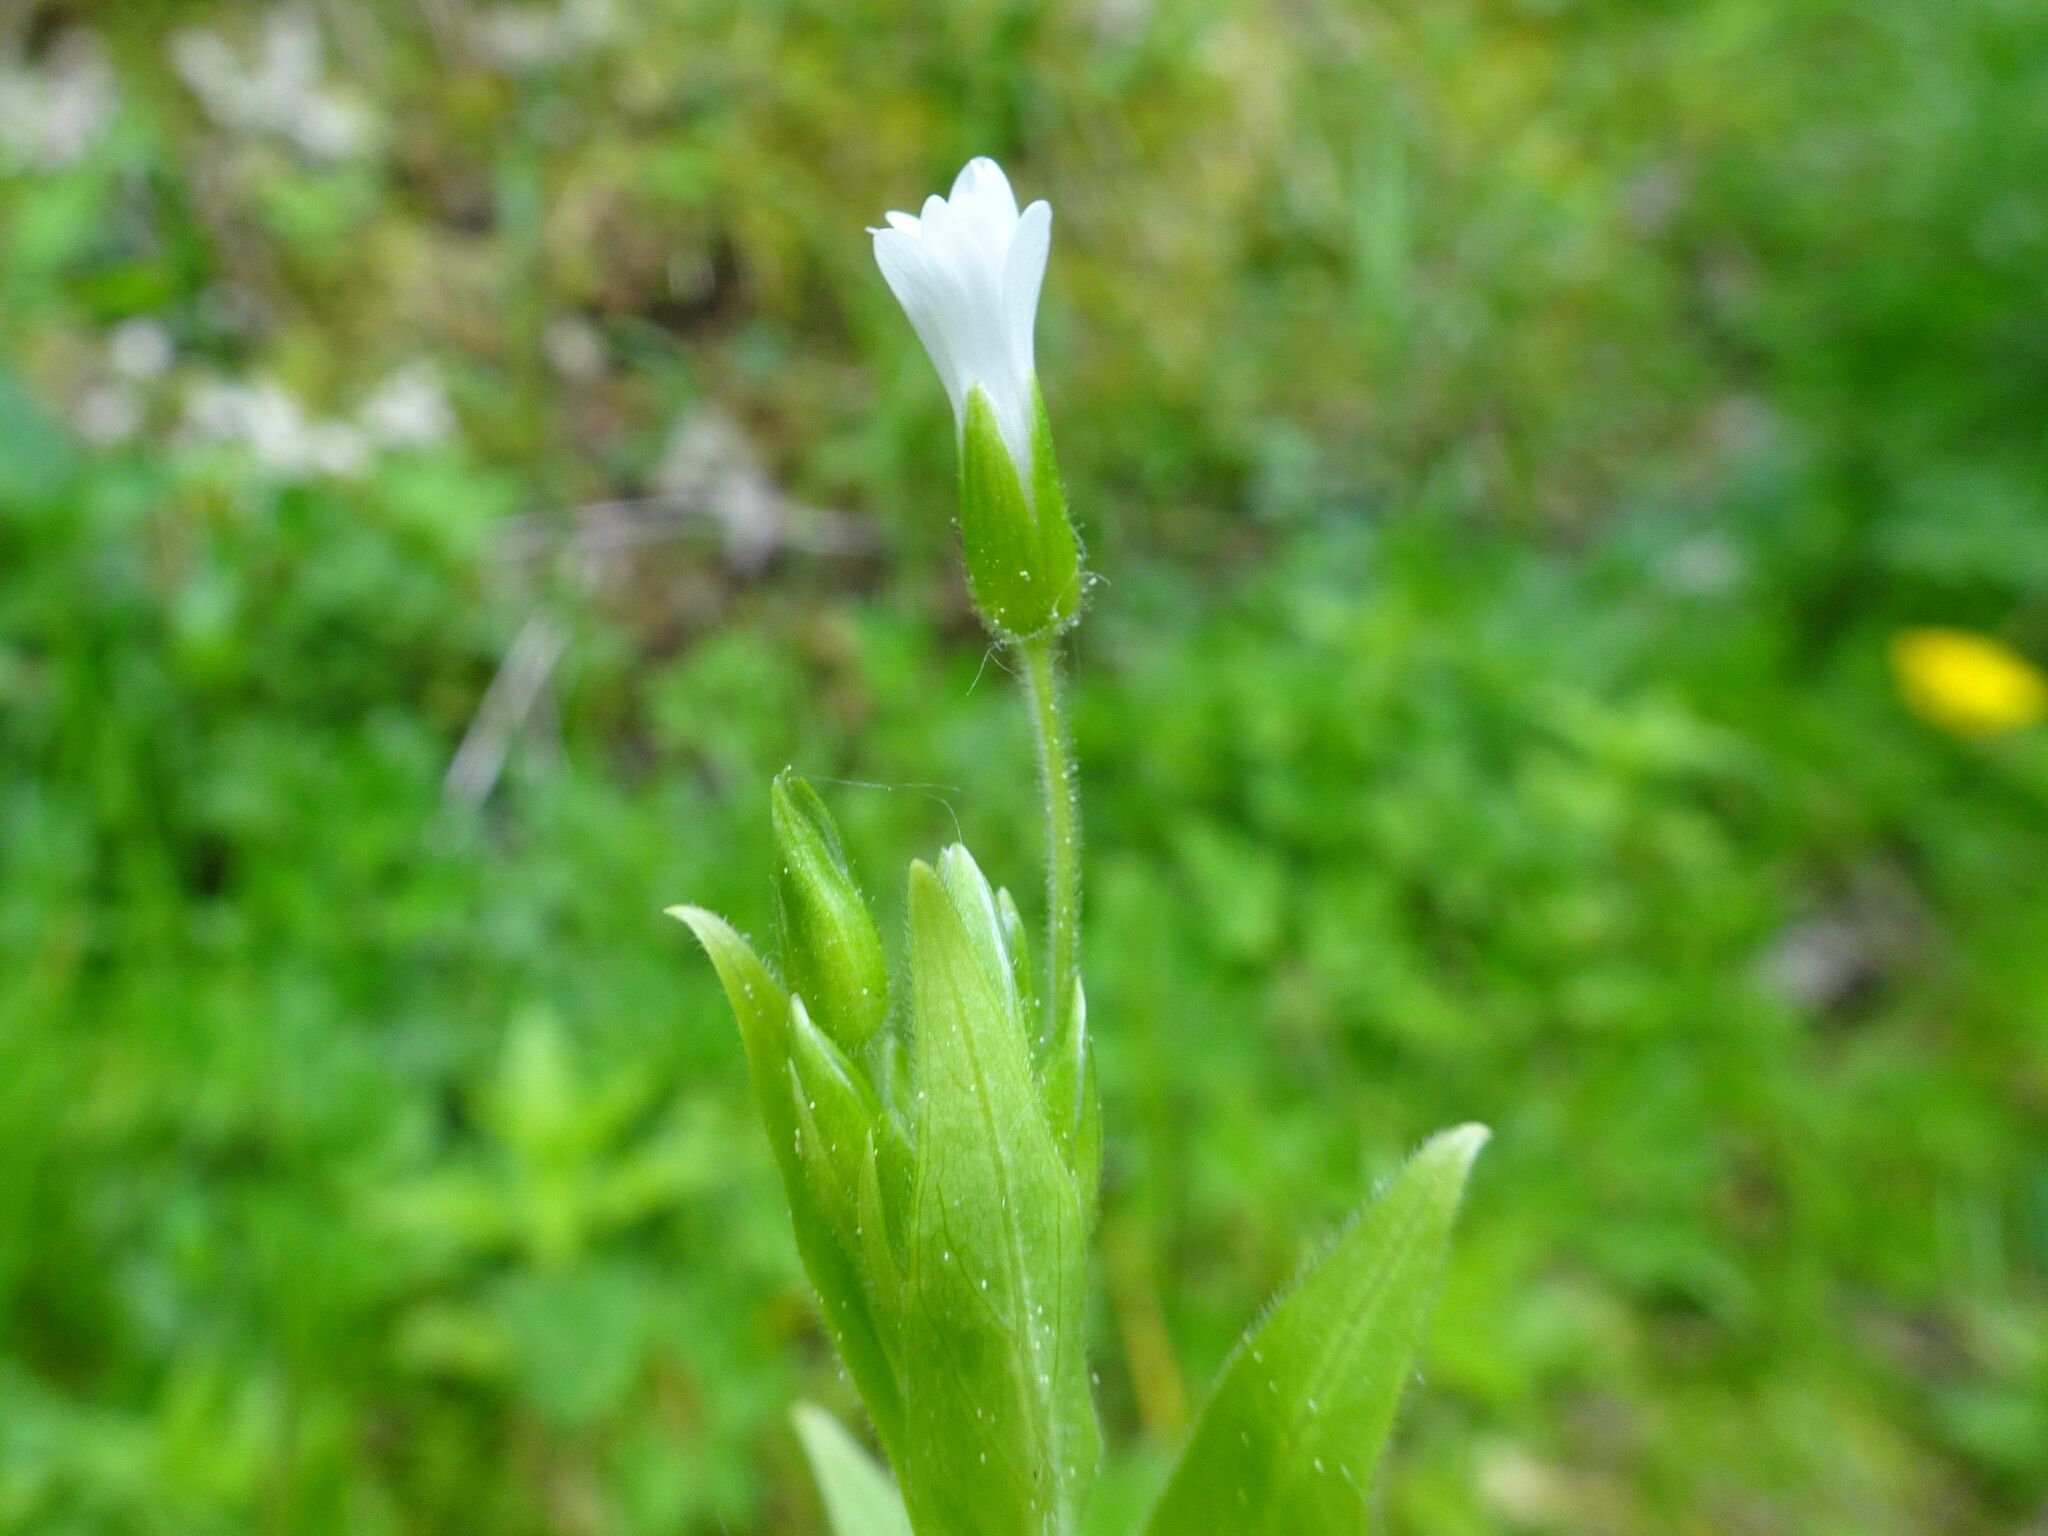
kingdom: Plantae
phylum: Tracheophyta
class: Magnoliopsida
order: Caryophyllales
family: Caryophyllaceae
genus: Stellaria
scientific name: Stellaria nemorum
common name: Wood stitchwort
